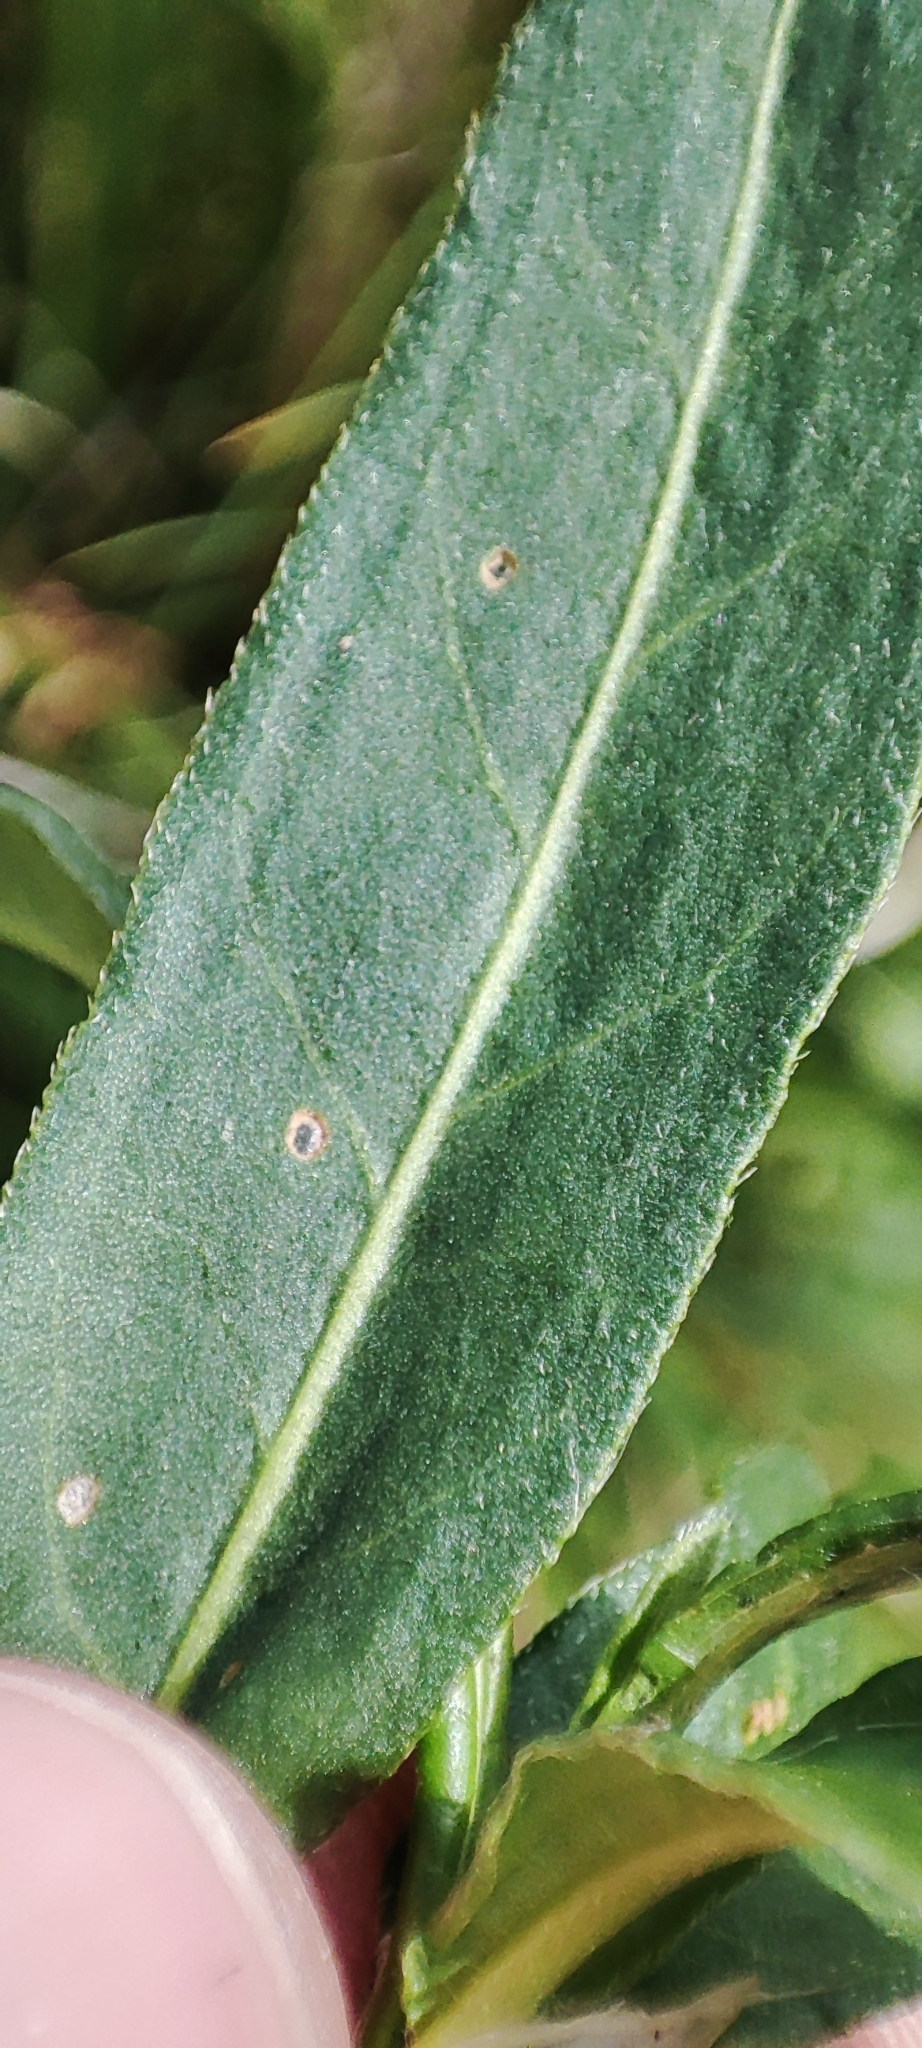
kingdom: Plantae
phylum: Tracheophyta
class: Magnoliopsida
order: Caryophyllales
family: Polygonaceae
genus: Persicaria
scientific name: Persicaria amphibia
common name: Amphibious bistort
